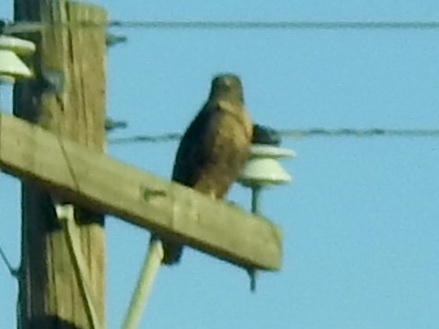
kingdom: Animalia
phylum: Chordata
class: Aves
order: Accipitriformes
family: Accipitridae
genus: Buteo
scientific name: Buteo jamaicensis
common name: Red-tailed hawk
